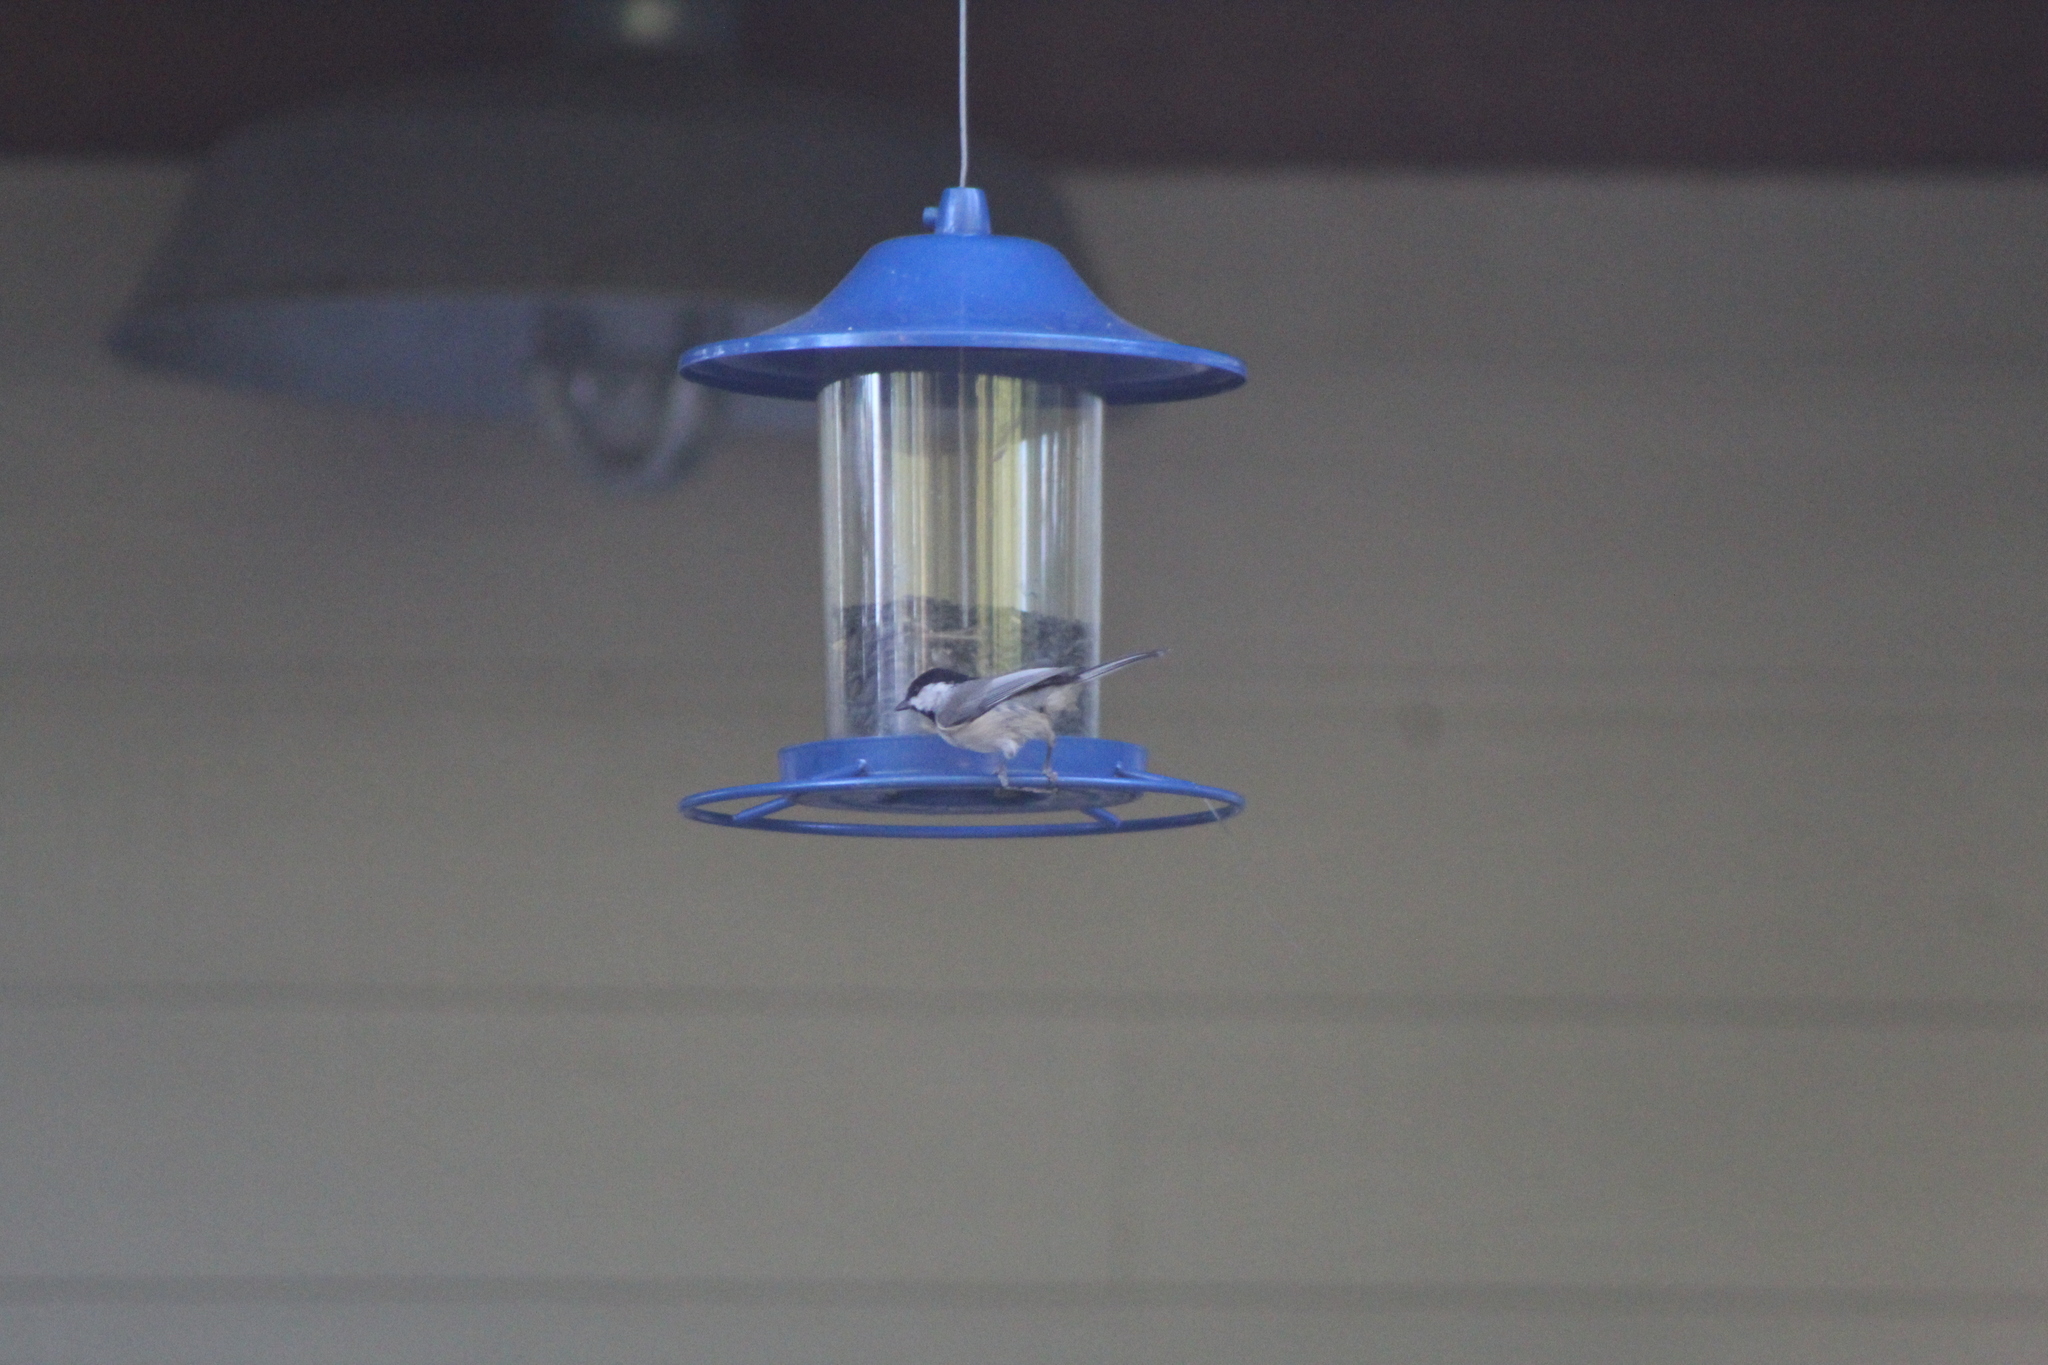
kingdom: Animalia
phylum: Chordata
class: Aves
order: Passeriformes
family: Paridae
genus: Poecile
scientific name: Poecile carolinensis
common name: Carolina chickadee
